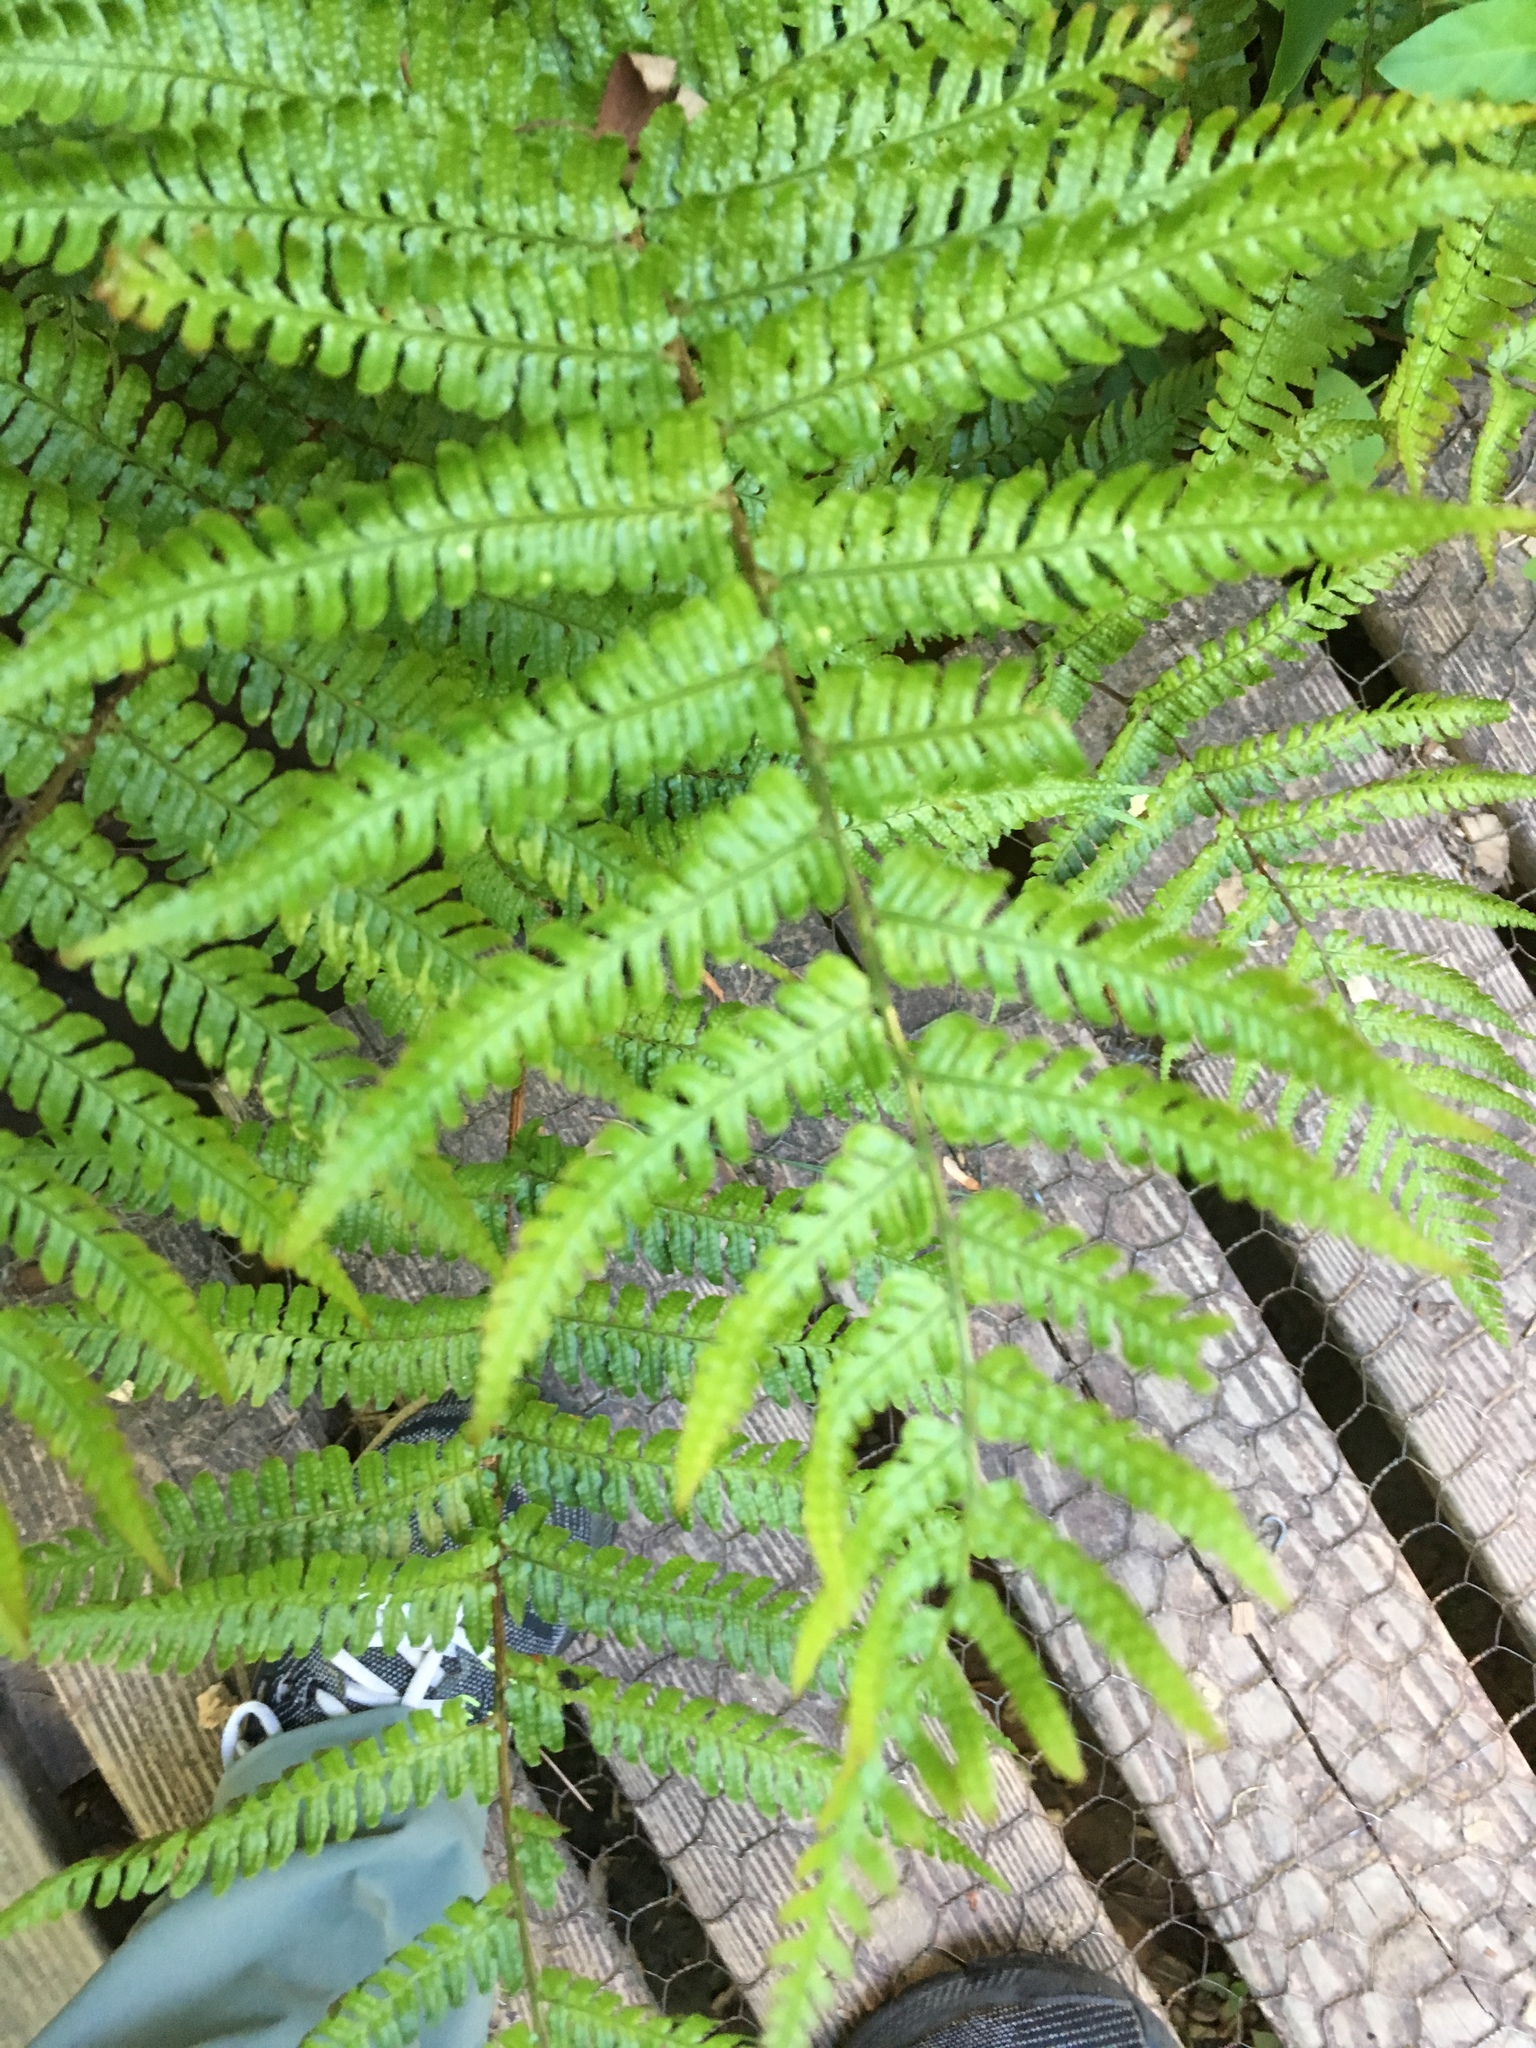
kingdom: Plantae
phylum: Tracheophyta
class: Polypodiopsida
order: Polypodiales
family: Dryopteridaceae
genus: Dryopteris
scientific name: Dryopteris erythrosora
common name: Autumn fern
